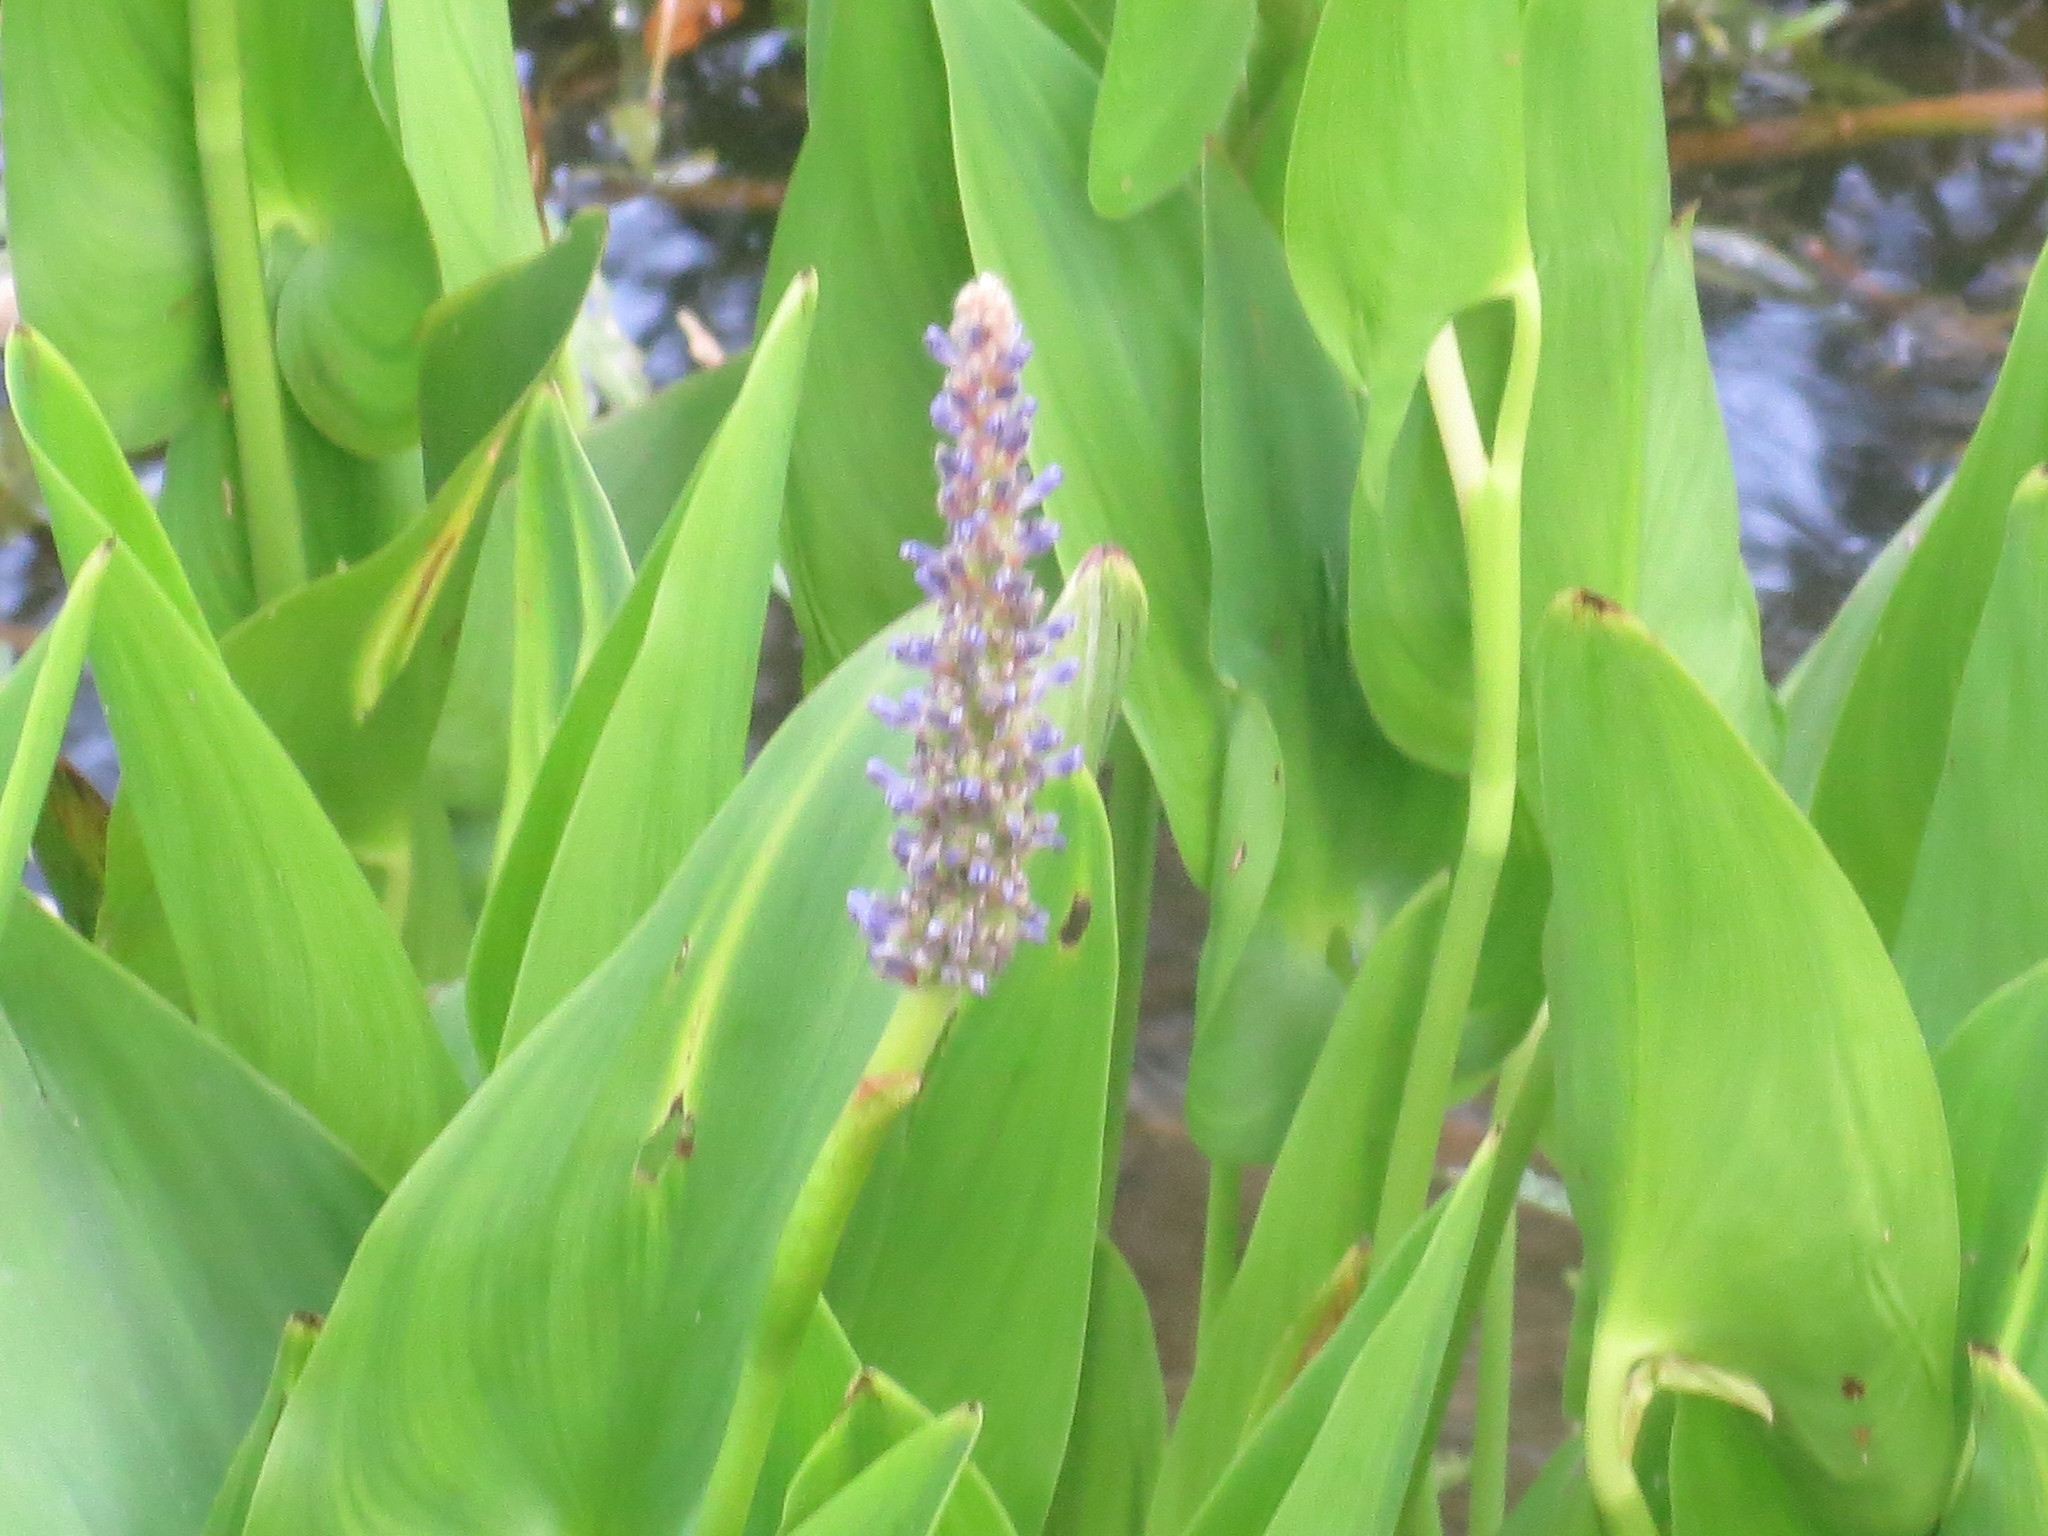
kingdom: Plantae
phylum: Tracheophyta
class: Liliopsida
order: Commelinales
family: Pontederiaceae
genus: Pontederia
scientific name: Pontederia cordata
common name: Pickerelweed
